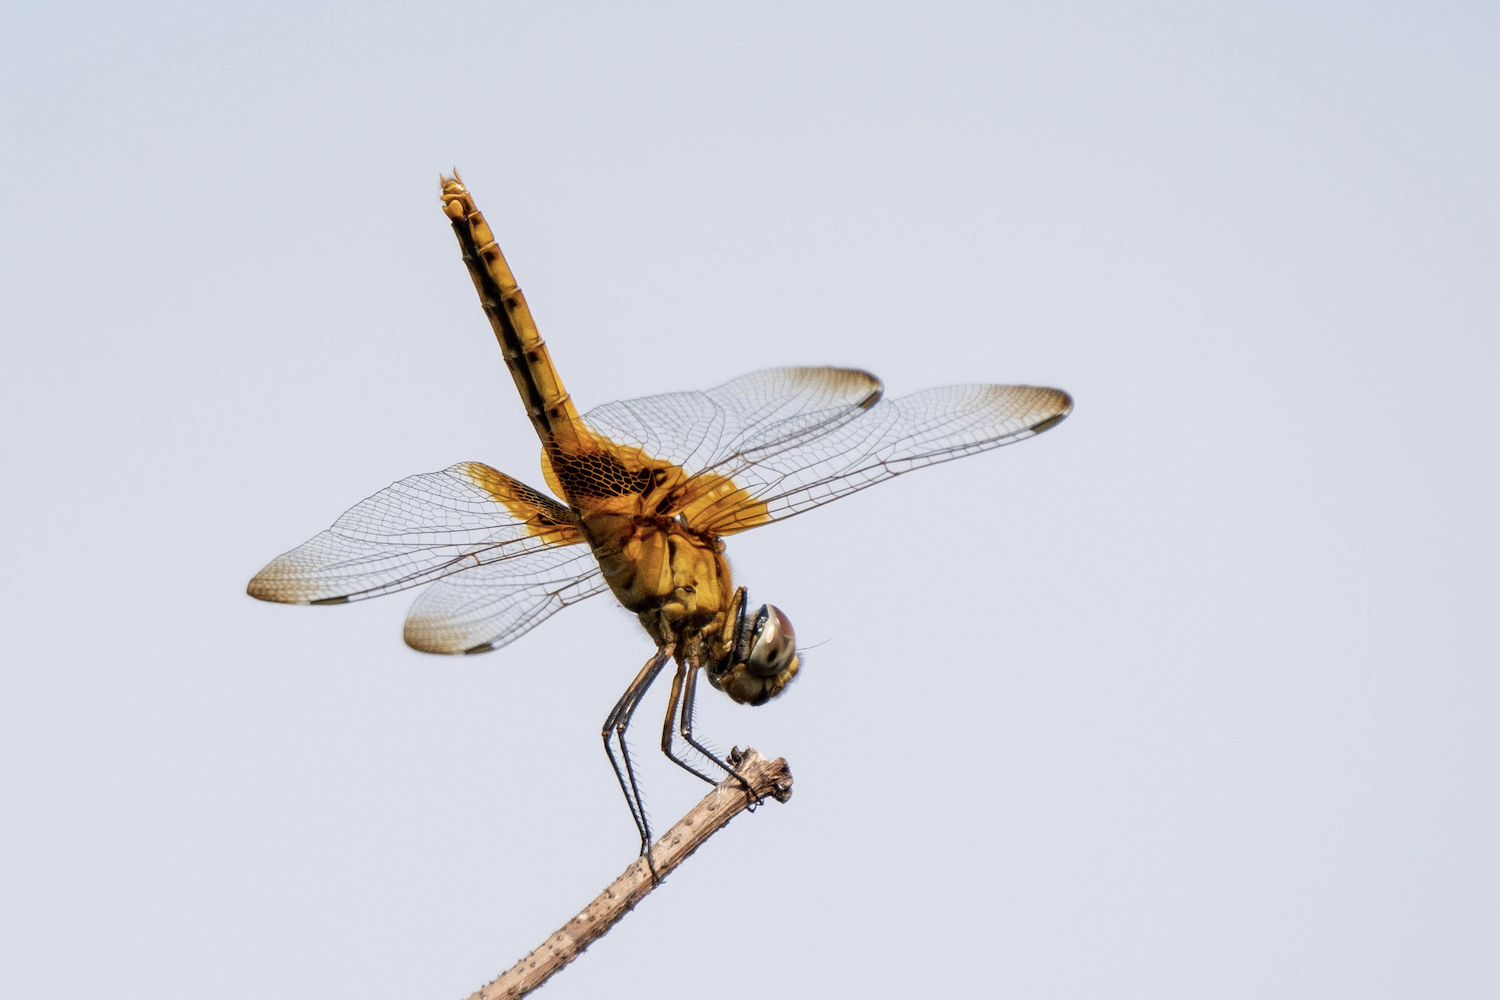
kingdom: Animalia
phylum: Arthropoda
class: Insecta
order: Odonata
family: Libellulidae
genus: Urothemis
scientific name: Urothemis signata
